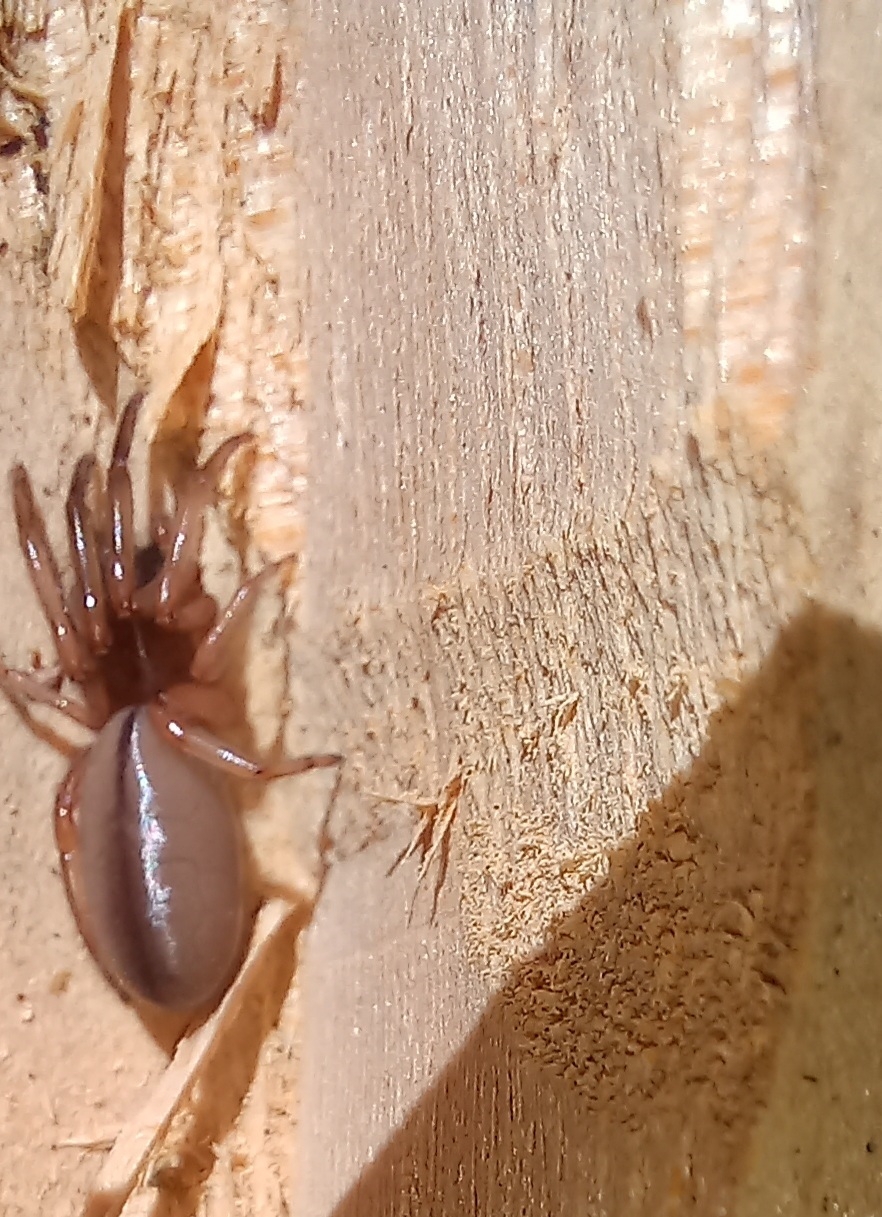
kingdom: Animalia
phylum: Arthropoda
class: Arachnida
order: Araneae
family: Dysderidae
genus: Dysdera
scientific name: Dysdera crocata
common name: Woodlouse spider
